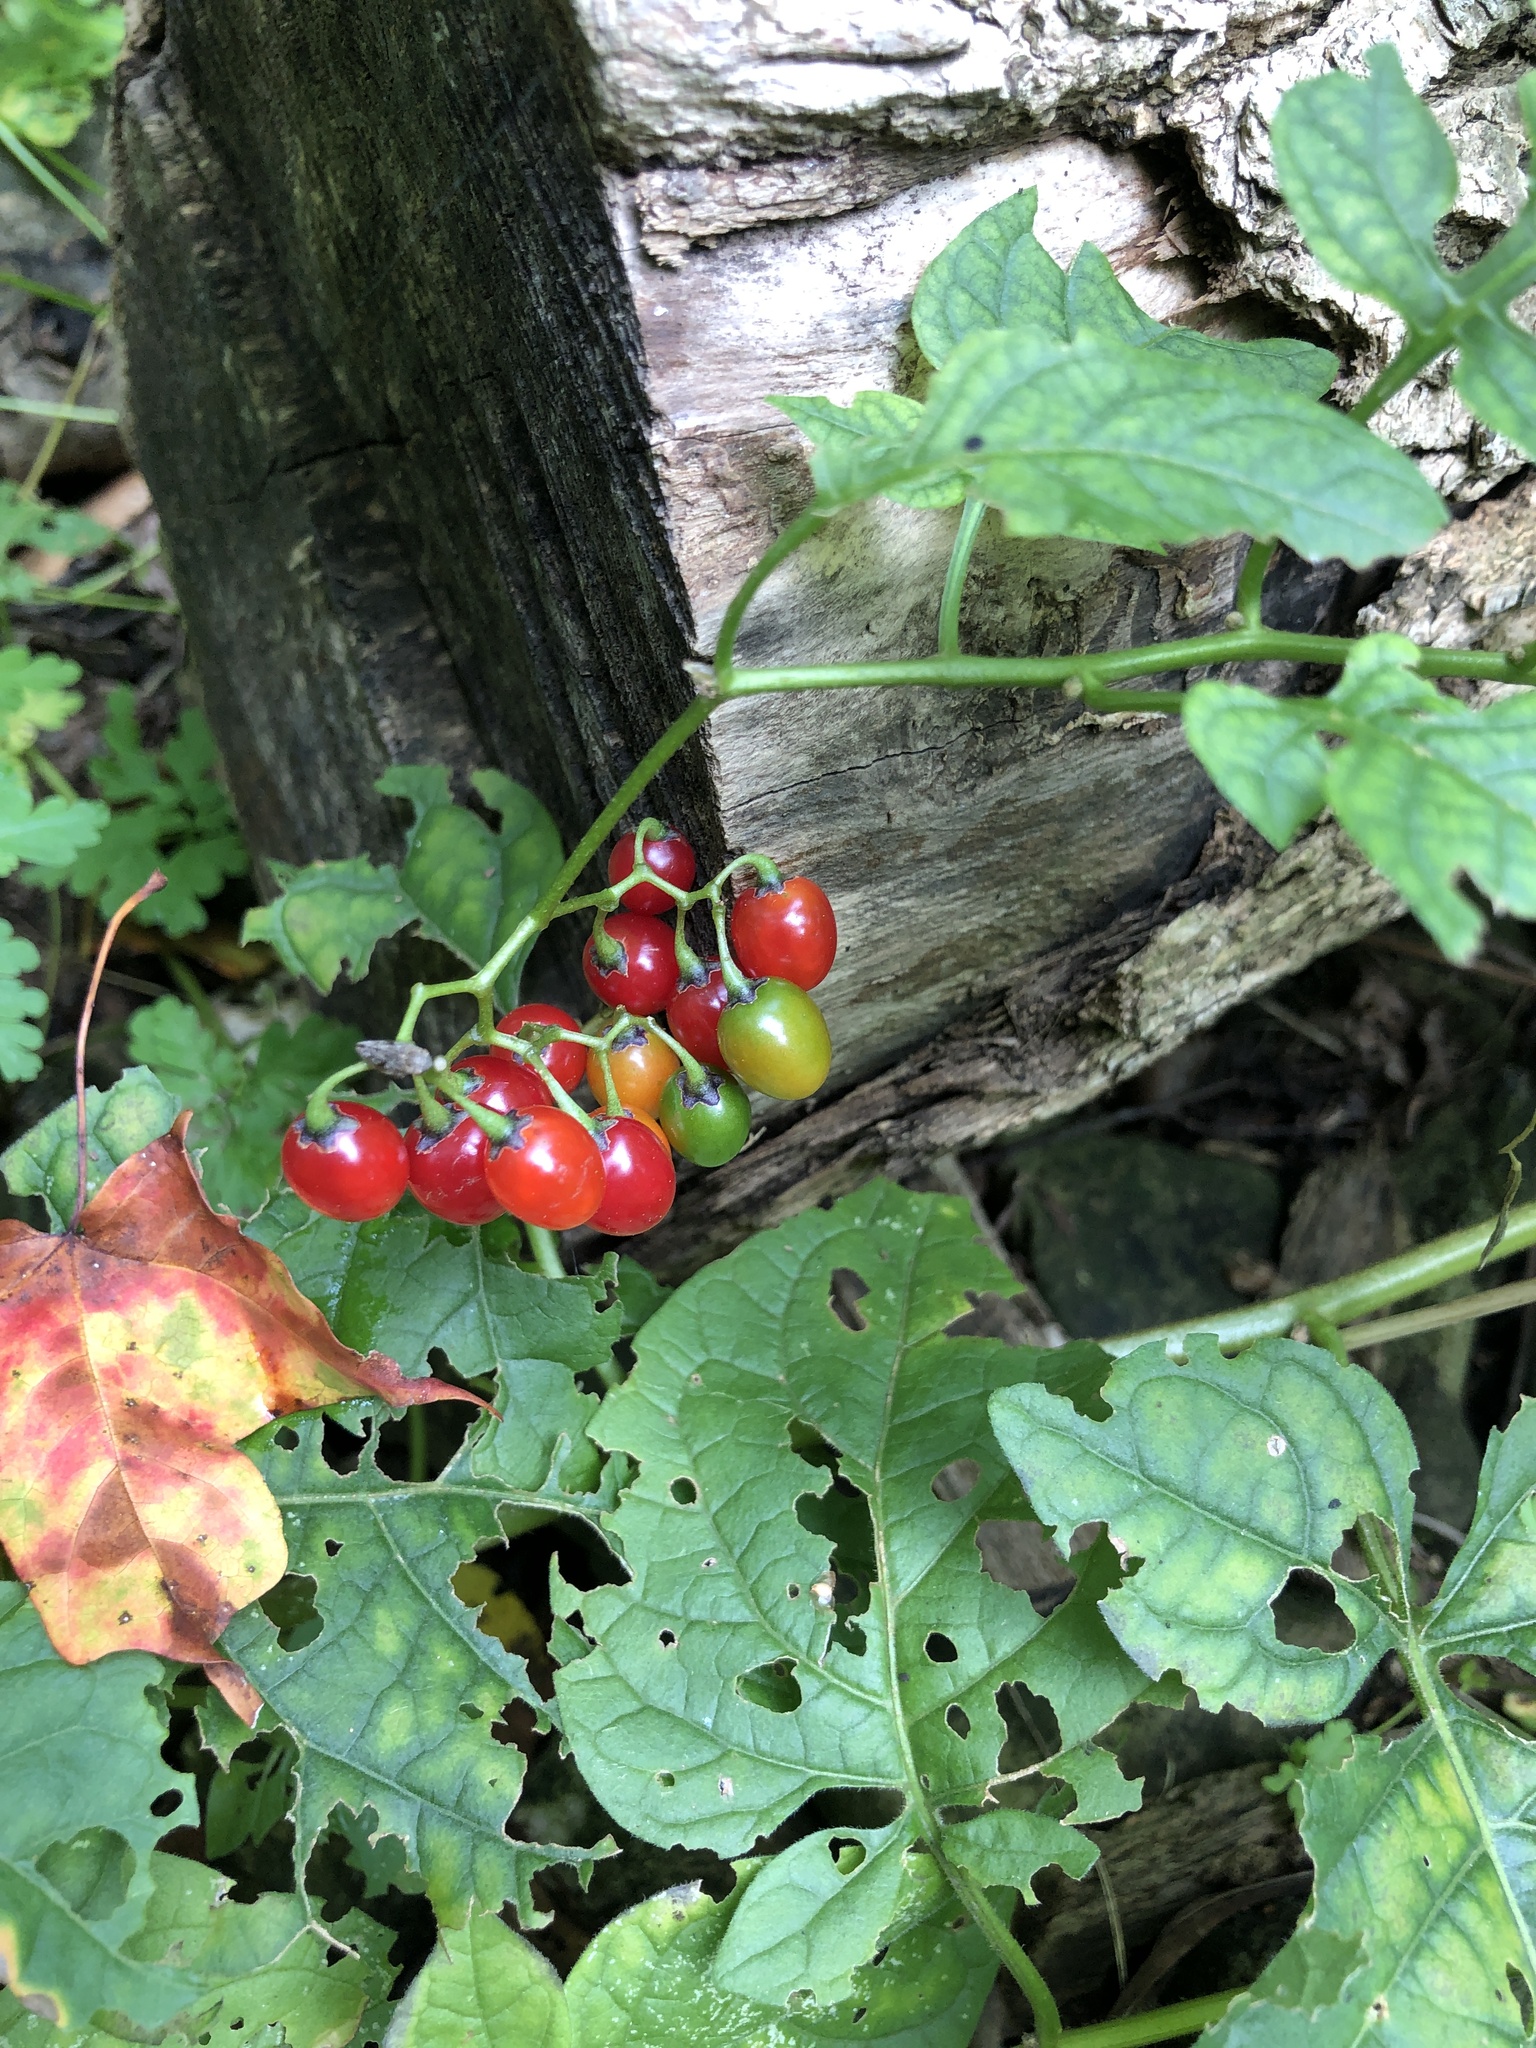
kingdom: Plantae
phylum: Tracheophyta
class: Magnoliopsida
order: Solanales
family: Solanaceae
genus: Solanum
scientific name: Solanum dulcamara
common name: Climbing nightshade
